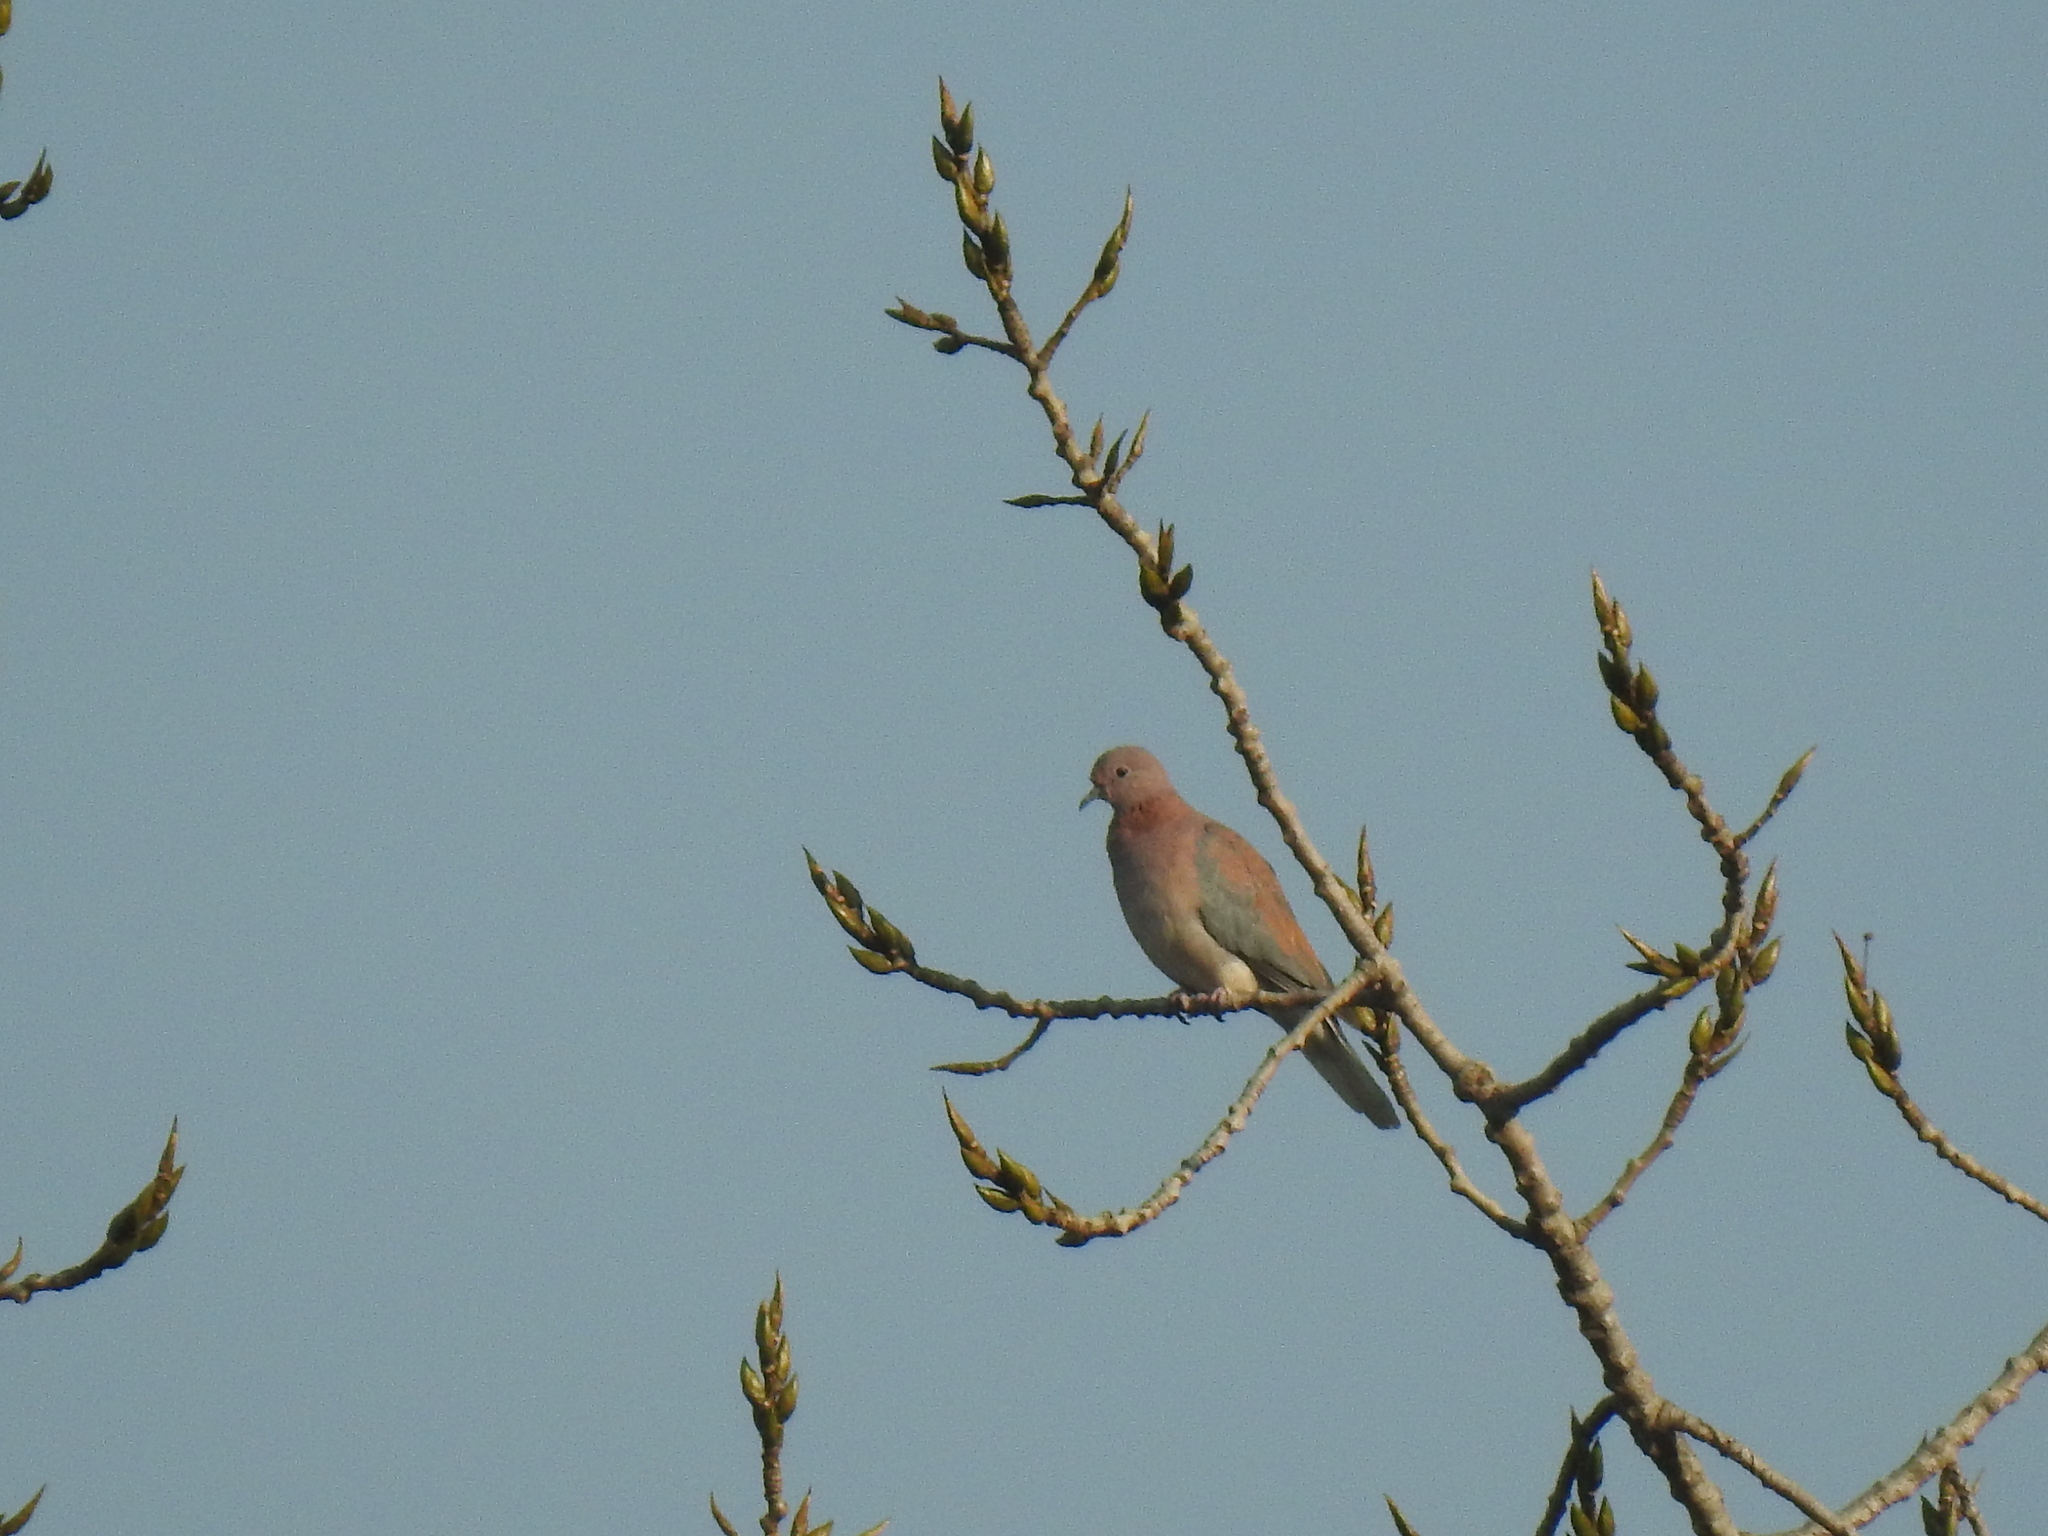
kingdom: Animalia
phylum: Chordata
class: Aves
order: Columbiformes
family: Columbidae
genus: Spilopelia
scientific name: Spilopelia senegalensis
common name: Laughing dove
